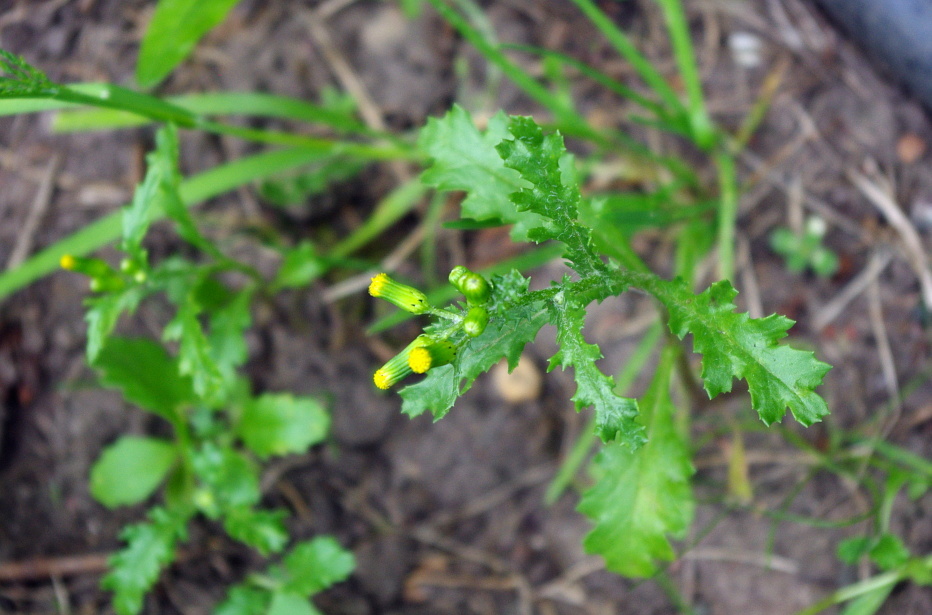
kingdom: Plantae
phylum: Tracheophyta
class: Magnoliopsida
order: Asterales
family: Asteraceae
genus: Senecio
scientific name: Senecio vulgaris
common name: Old-man-in-the-spring
